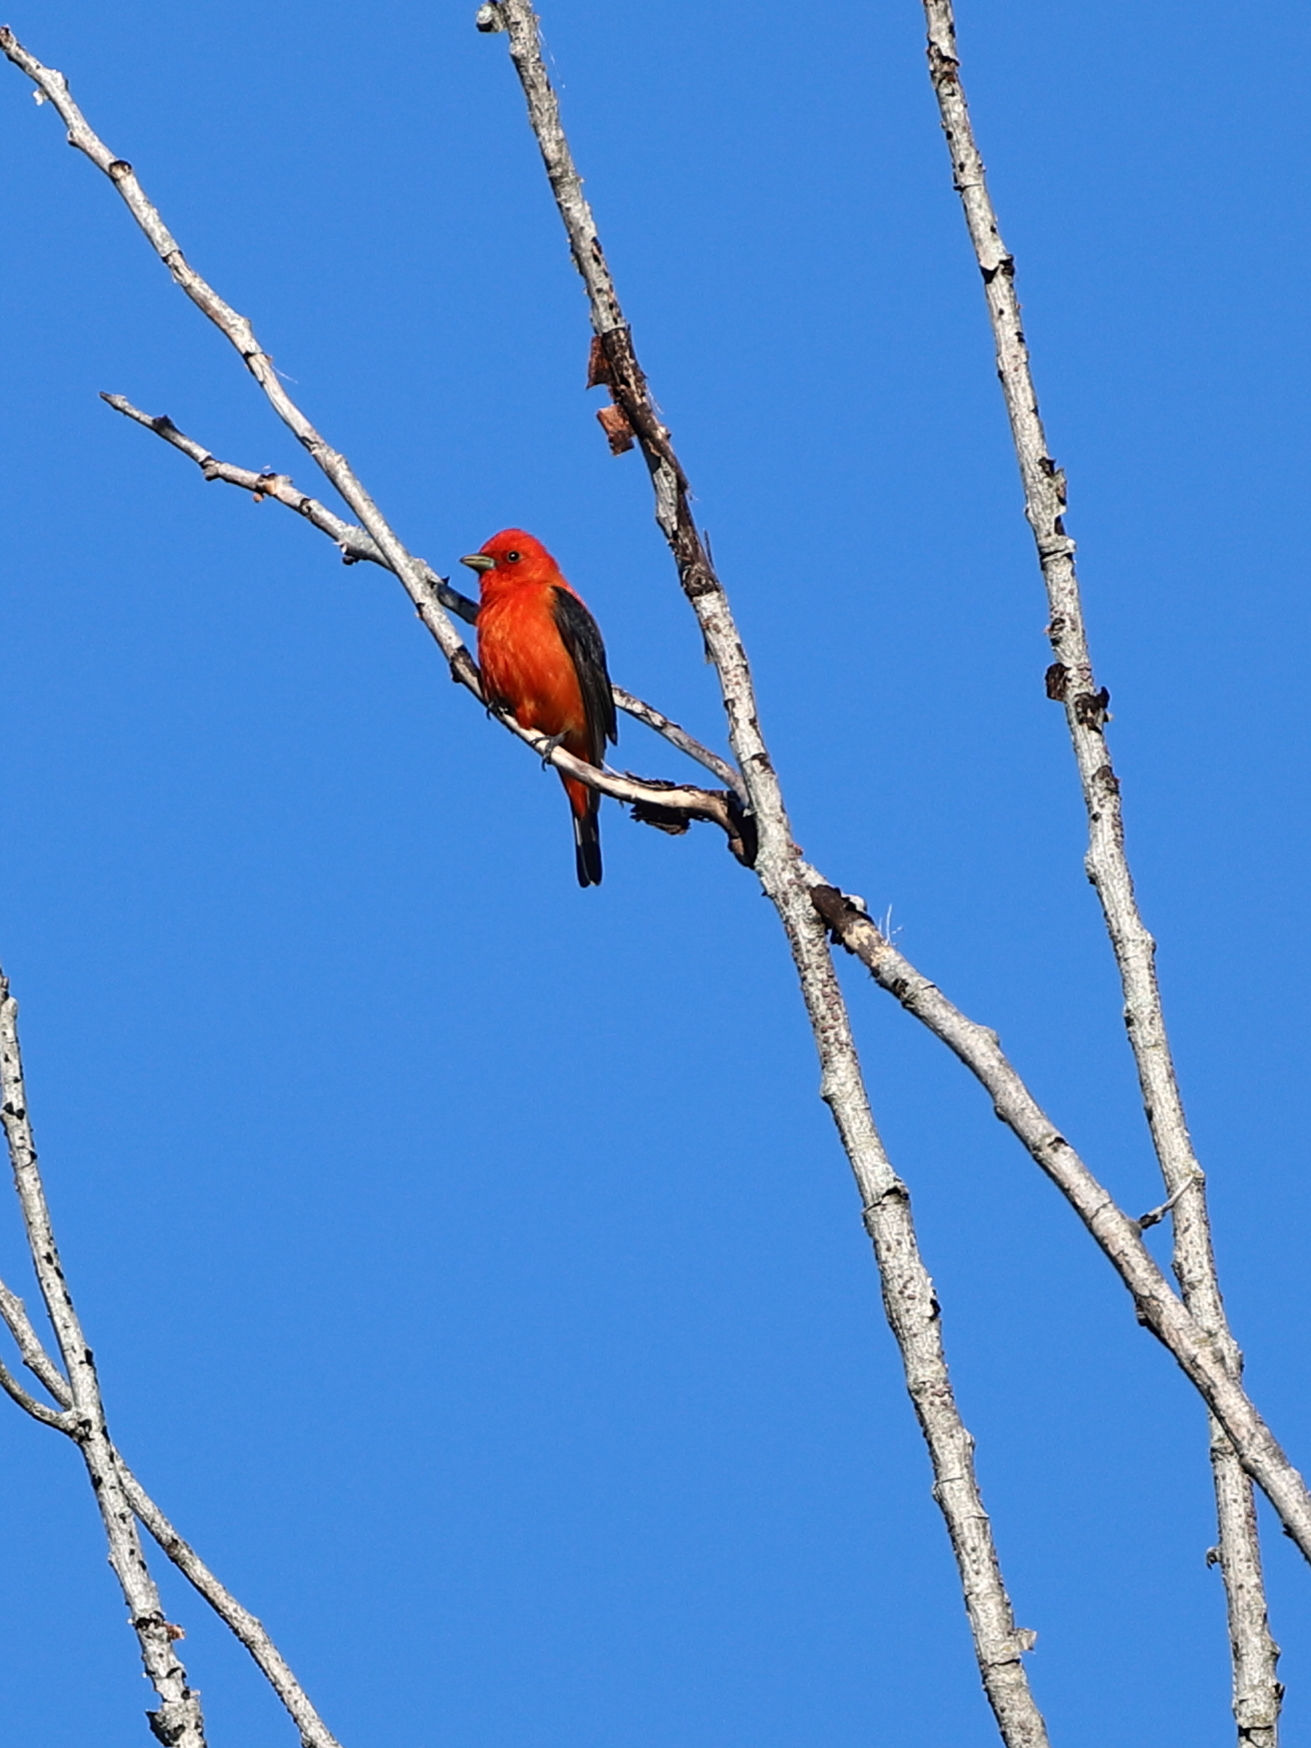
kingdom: Animalia
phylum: Chordata
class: Aves
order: Passeriformes
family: Cardinalidae
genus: Piranga
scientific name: Piranga olivacea
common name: Scarlet tanager
